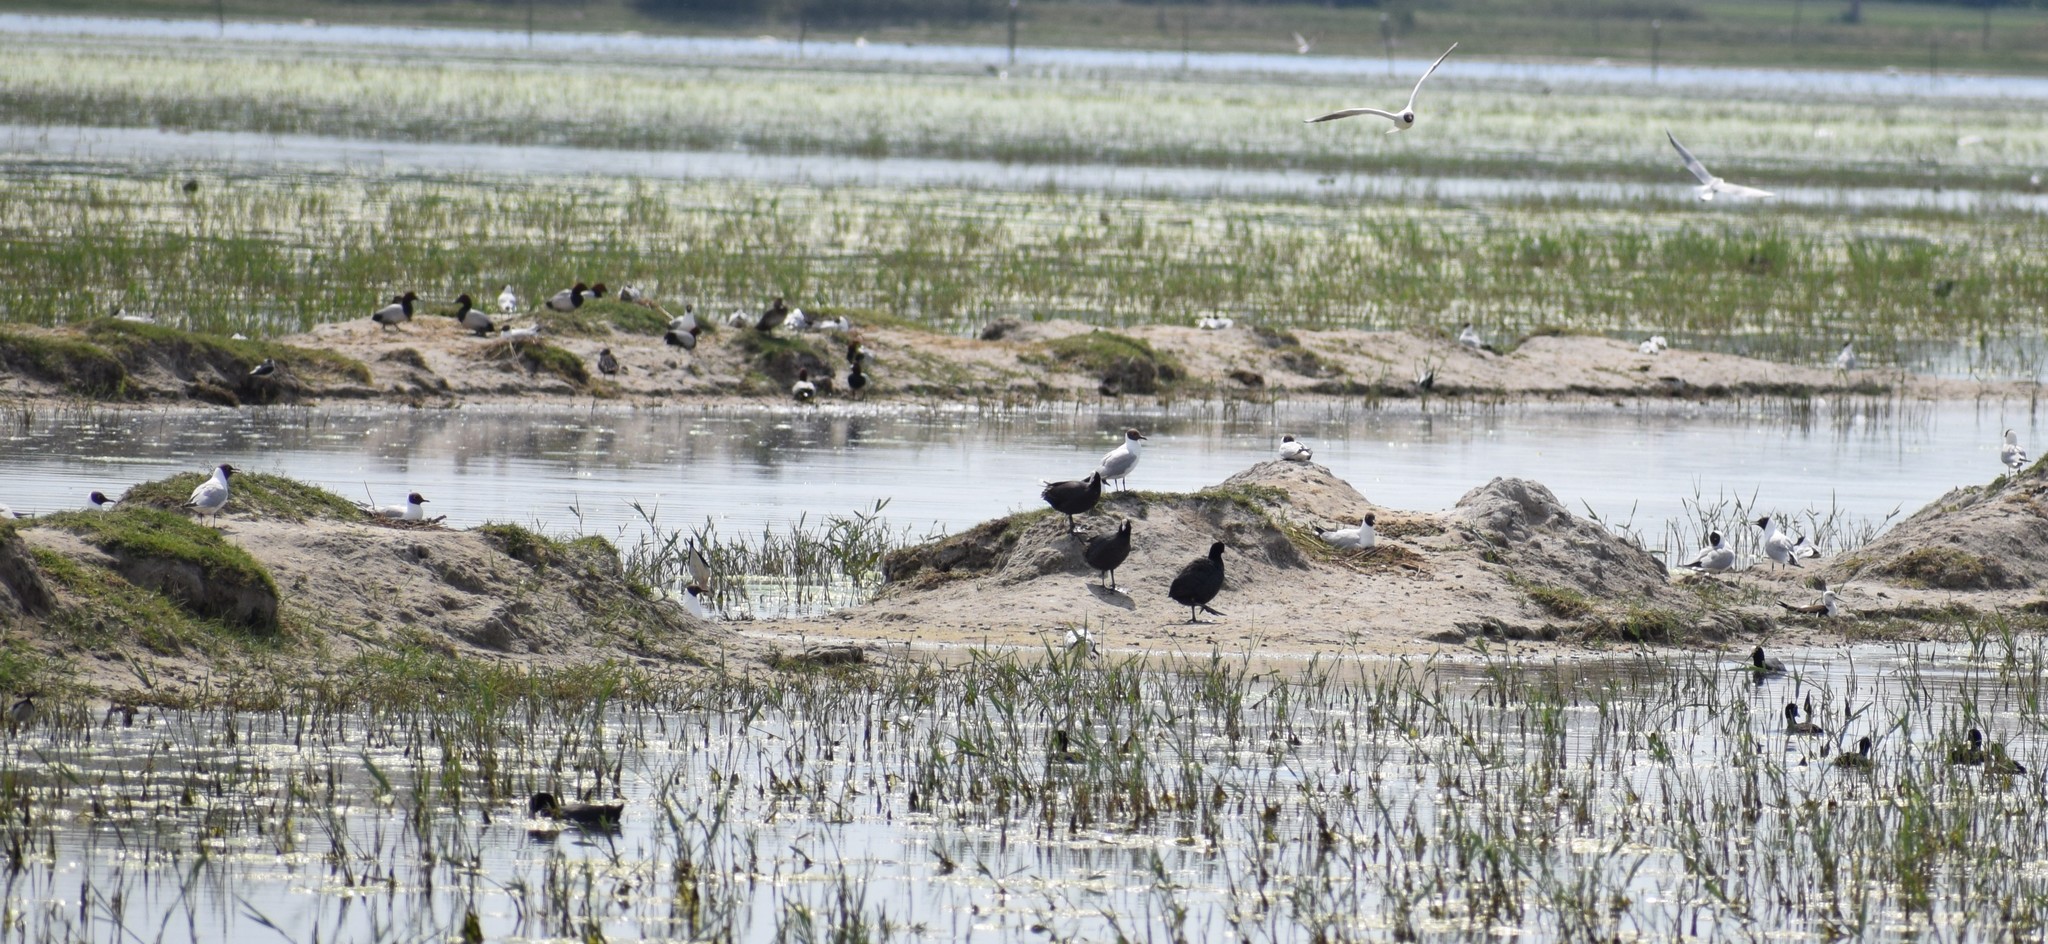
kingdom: Animalia
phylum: Chordata
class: Aves
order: Anseriformes
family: Anatidae
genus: Aythya
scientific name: Aythya ferina
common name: Common pochard
